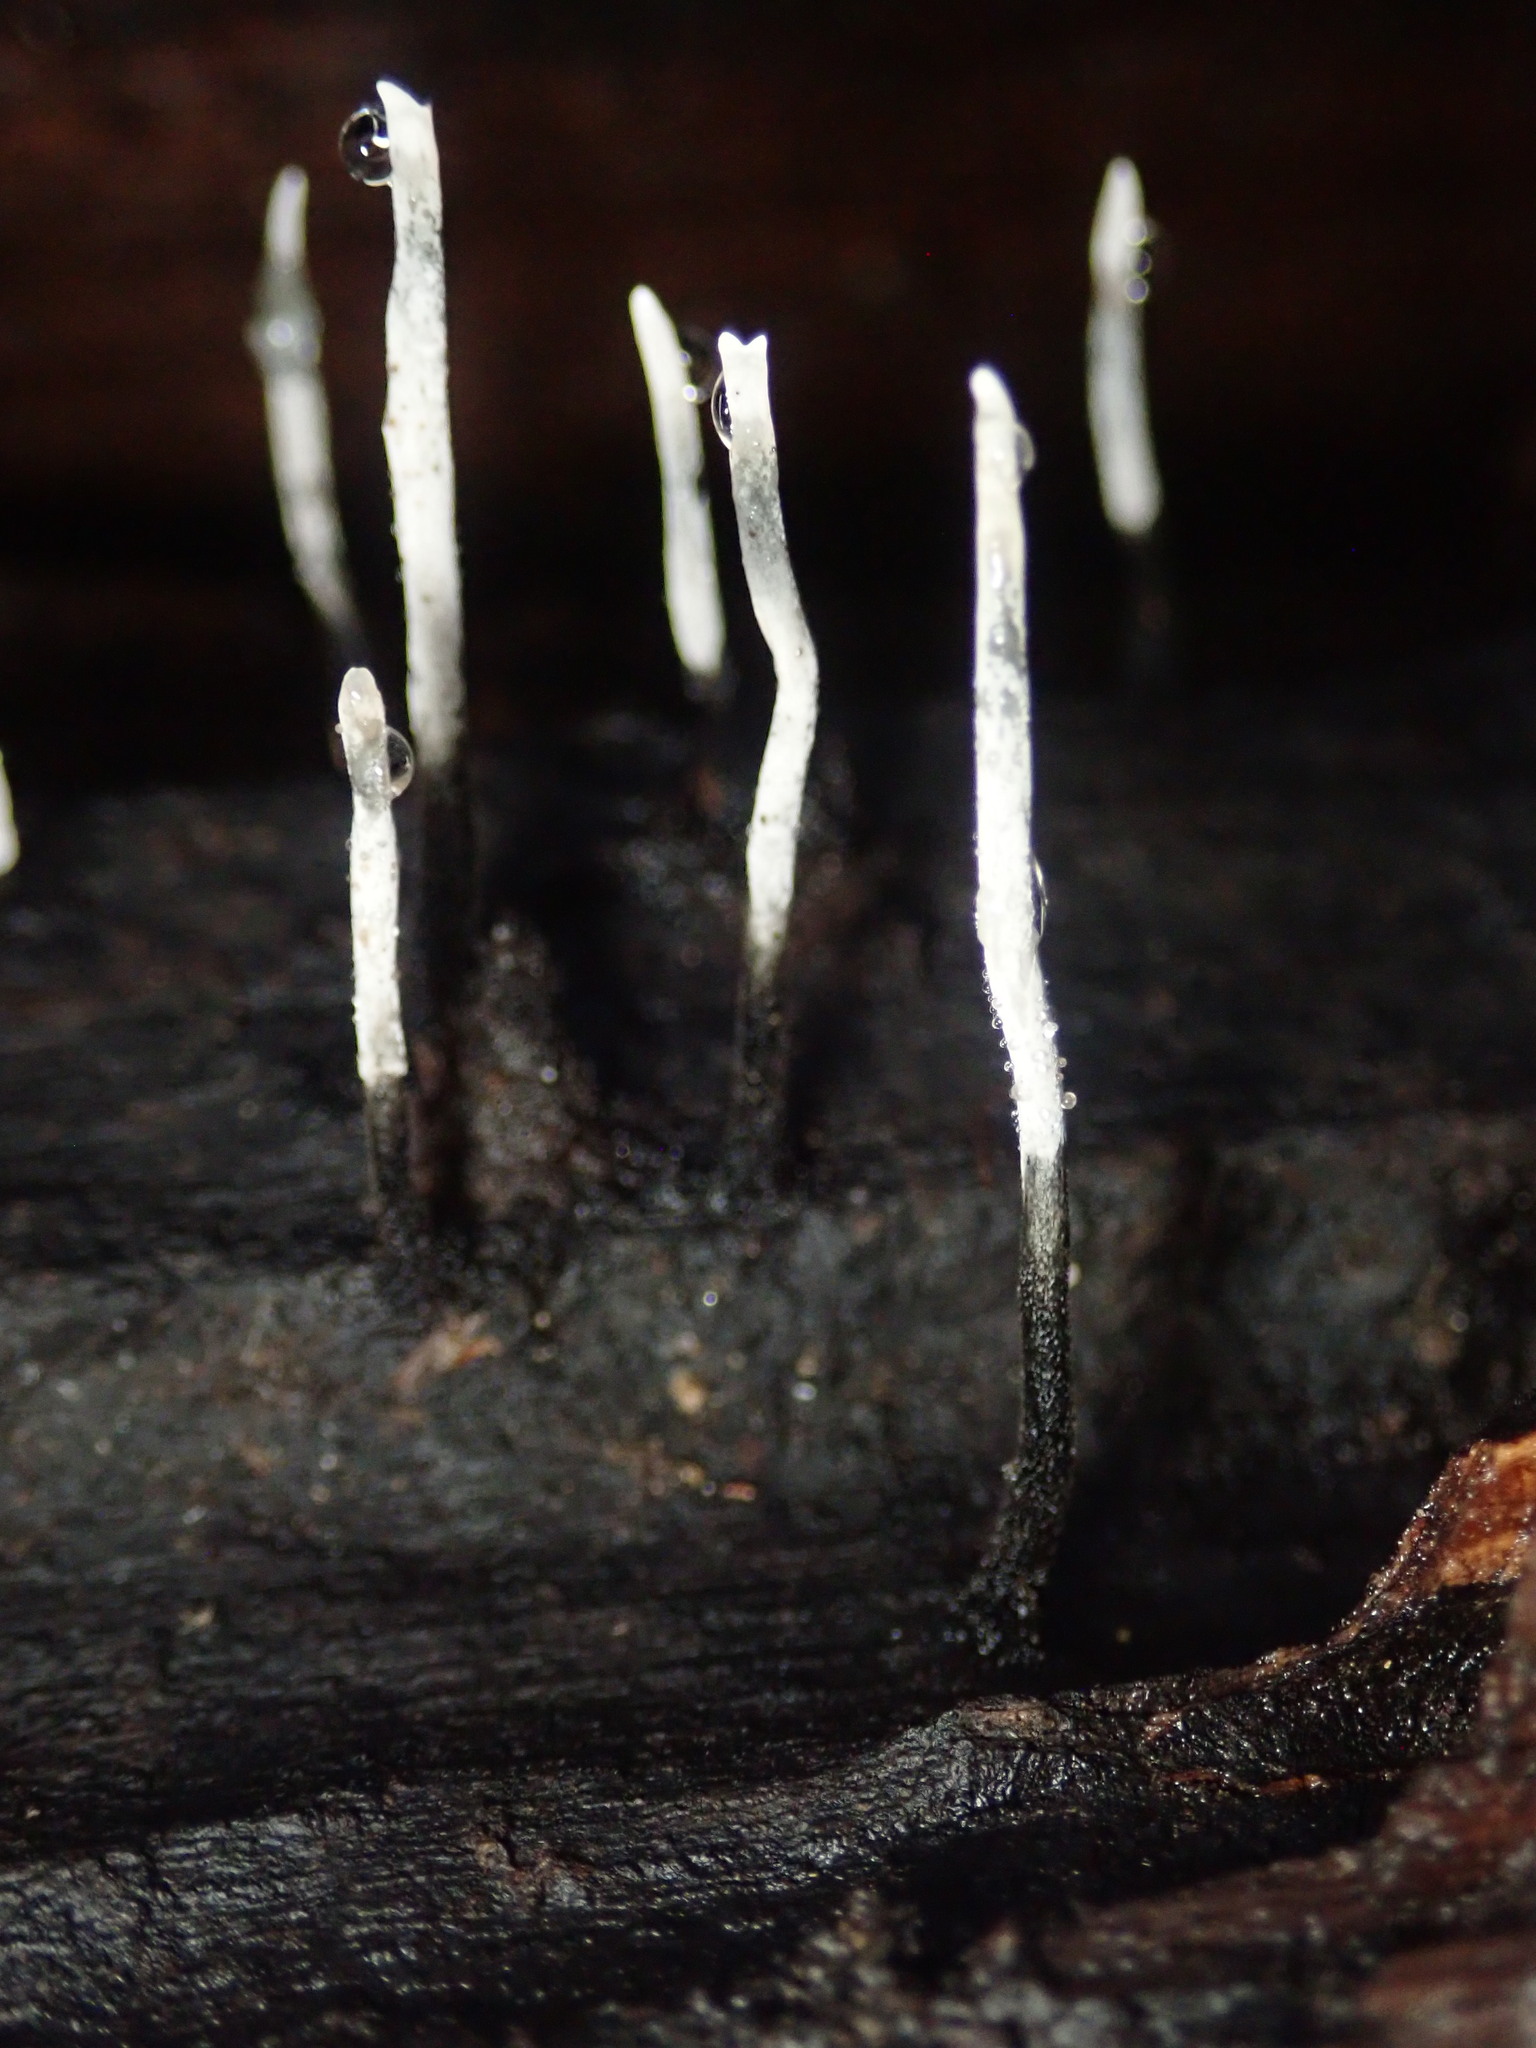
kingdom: Fungi
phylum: Ascomycota
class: Sordariomycetes
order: Xylariales
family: Xylariaceae
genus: Xylaria
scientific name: Xylaria hypoxylon
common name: Candle-snuff fungus
